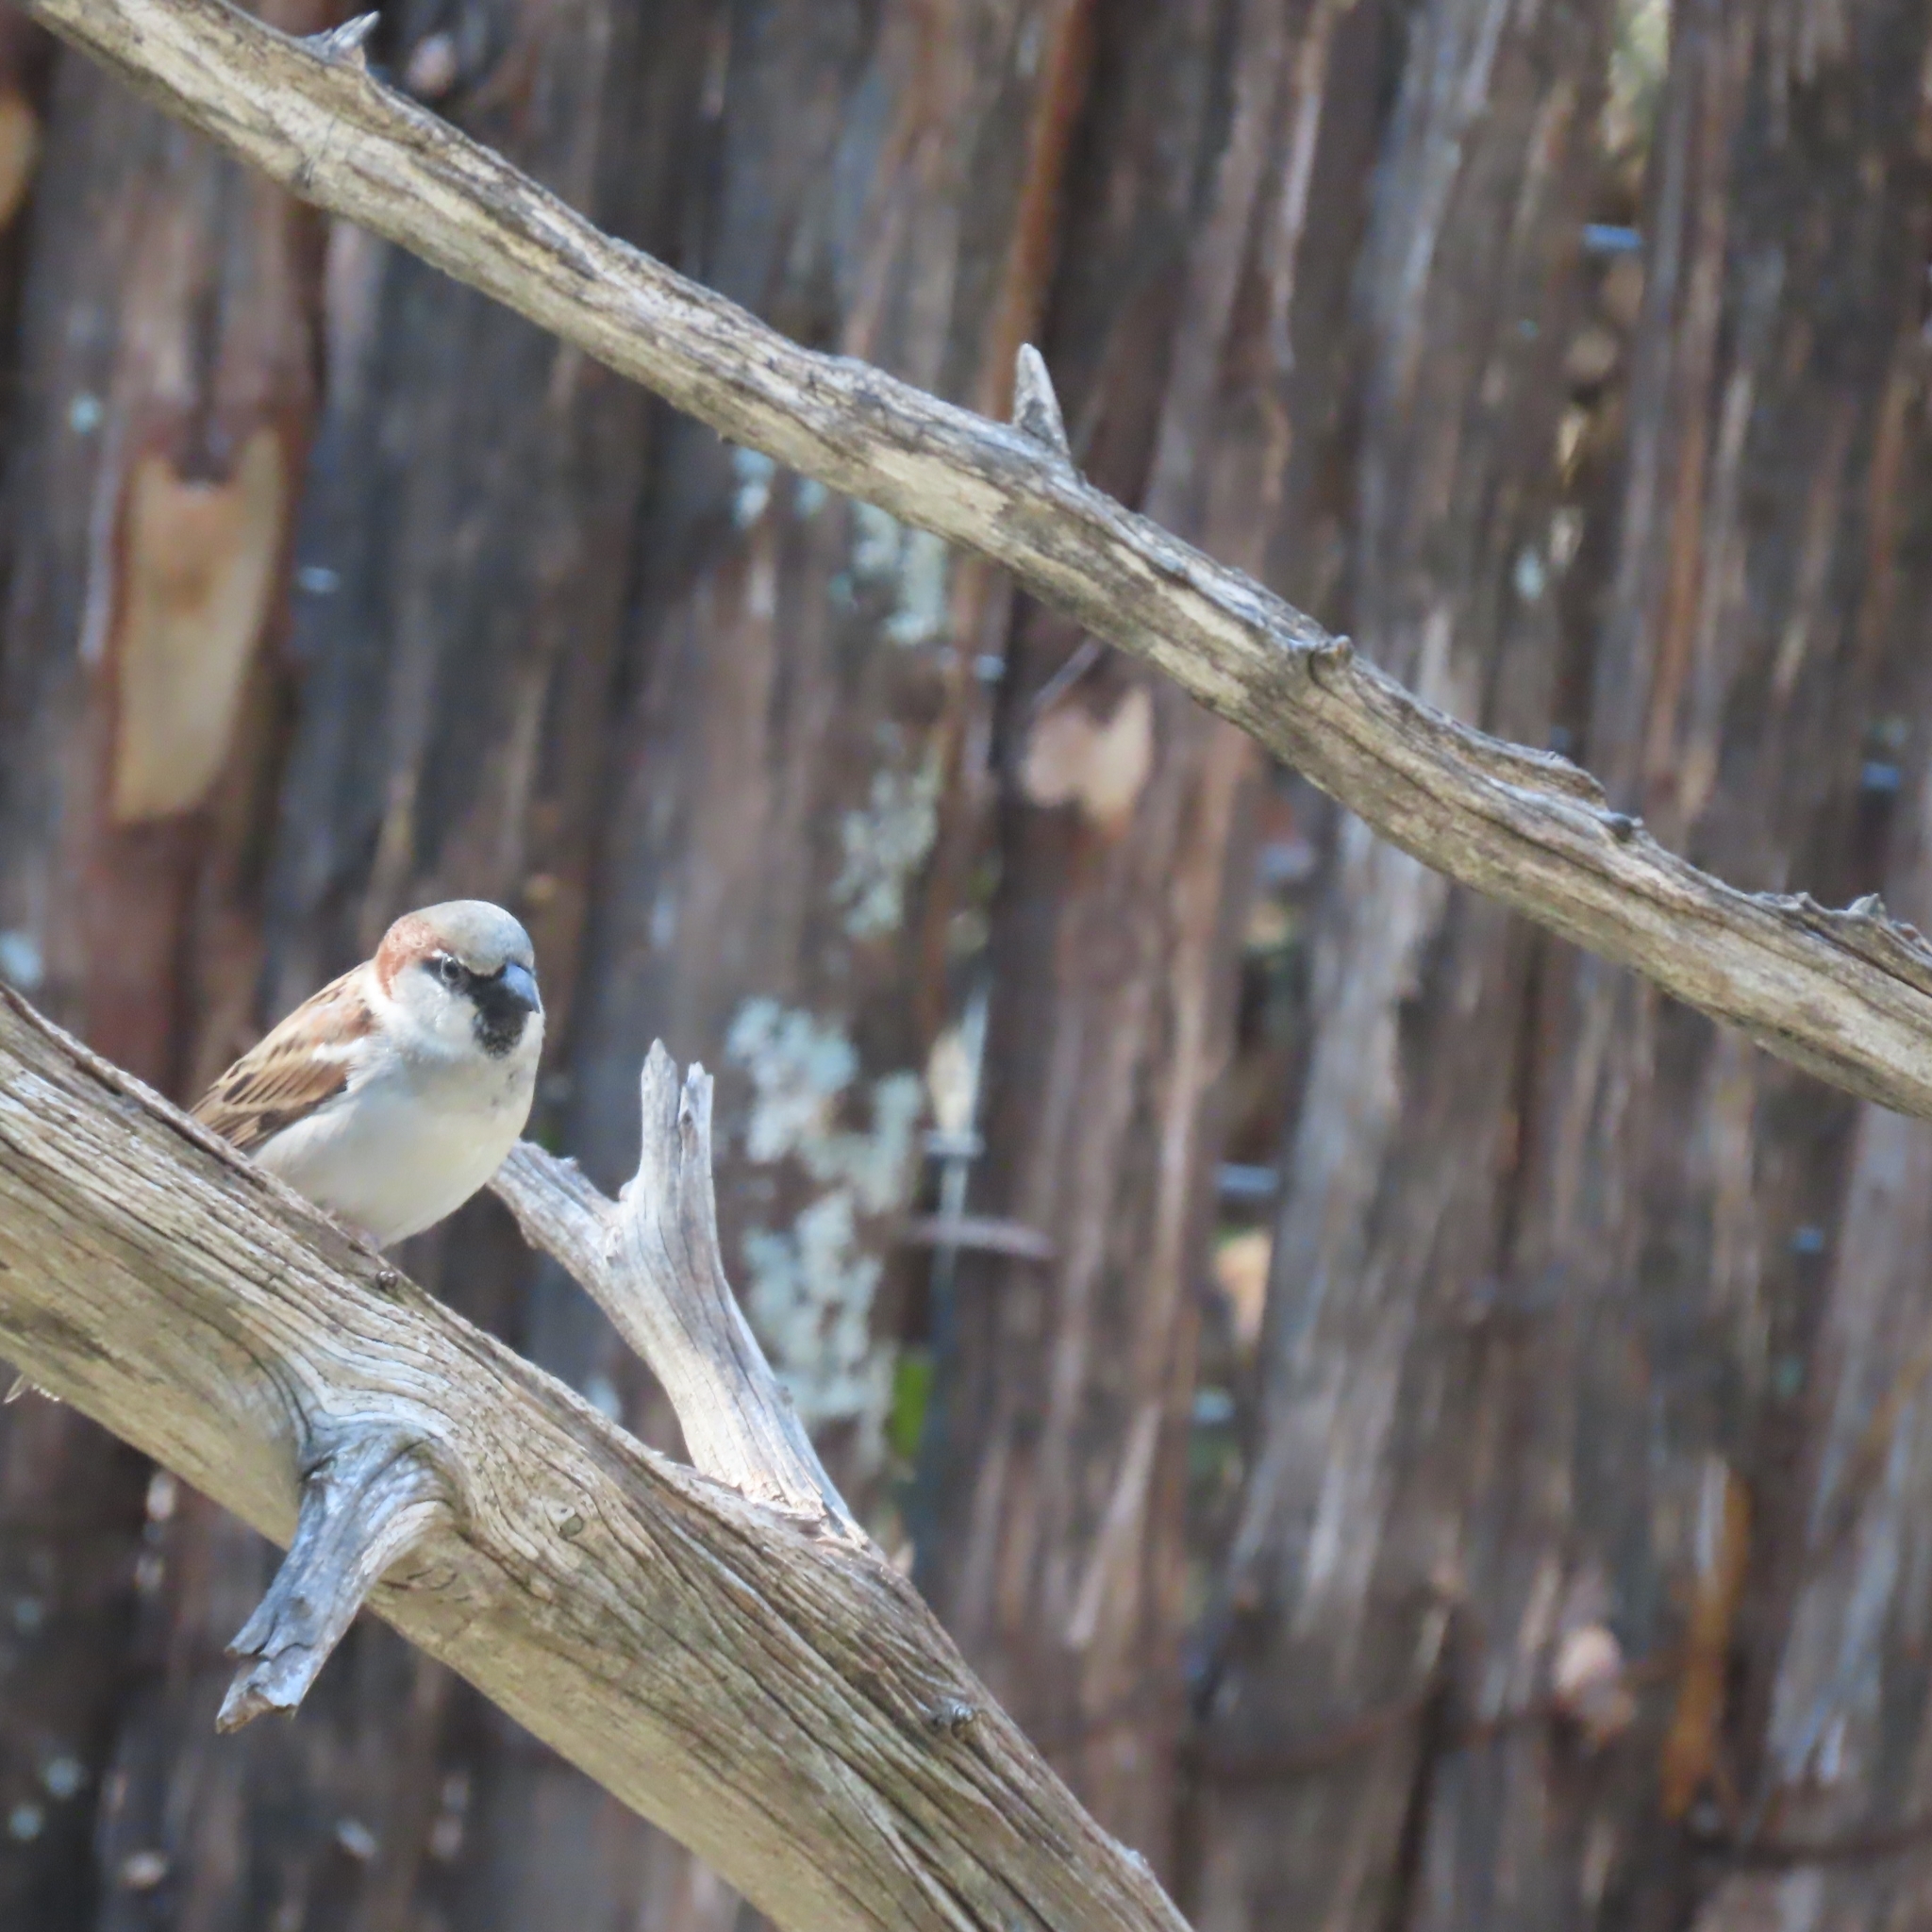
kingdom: Animalia
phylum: Chordata
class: Aves
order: Passeriformes
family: Passeridae
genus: Passer
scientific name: Passer domesticus
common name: House sparrow
